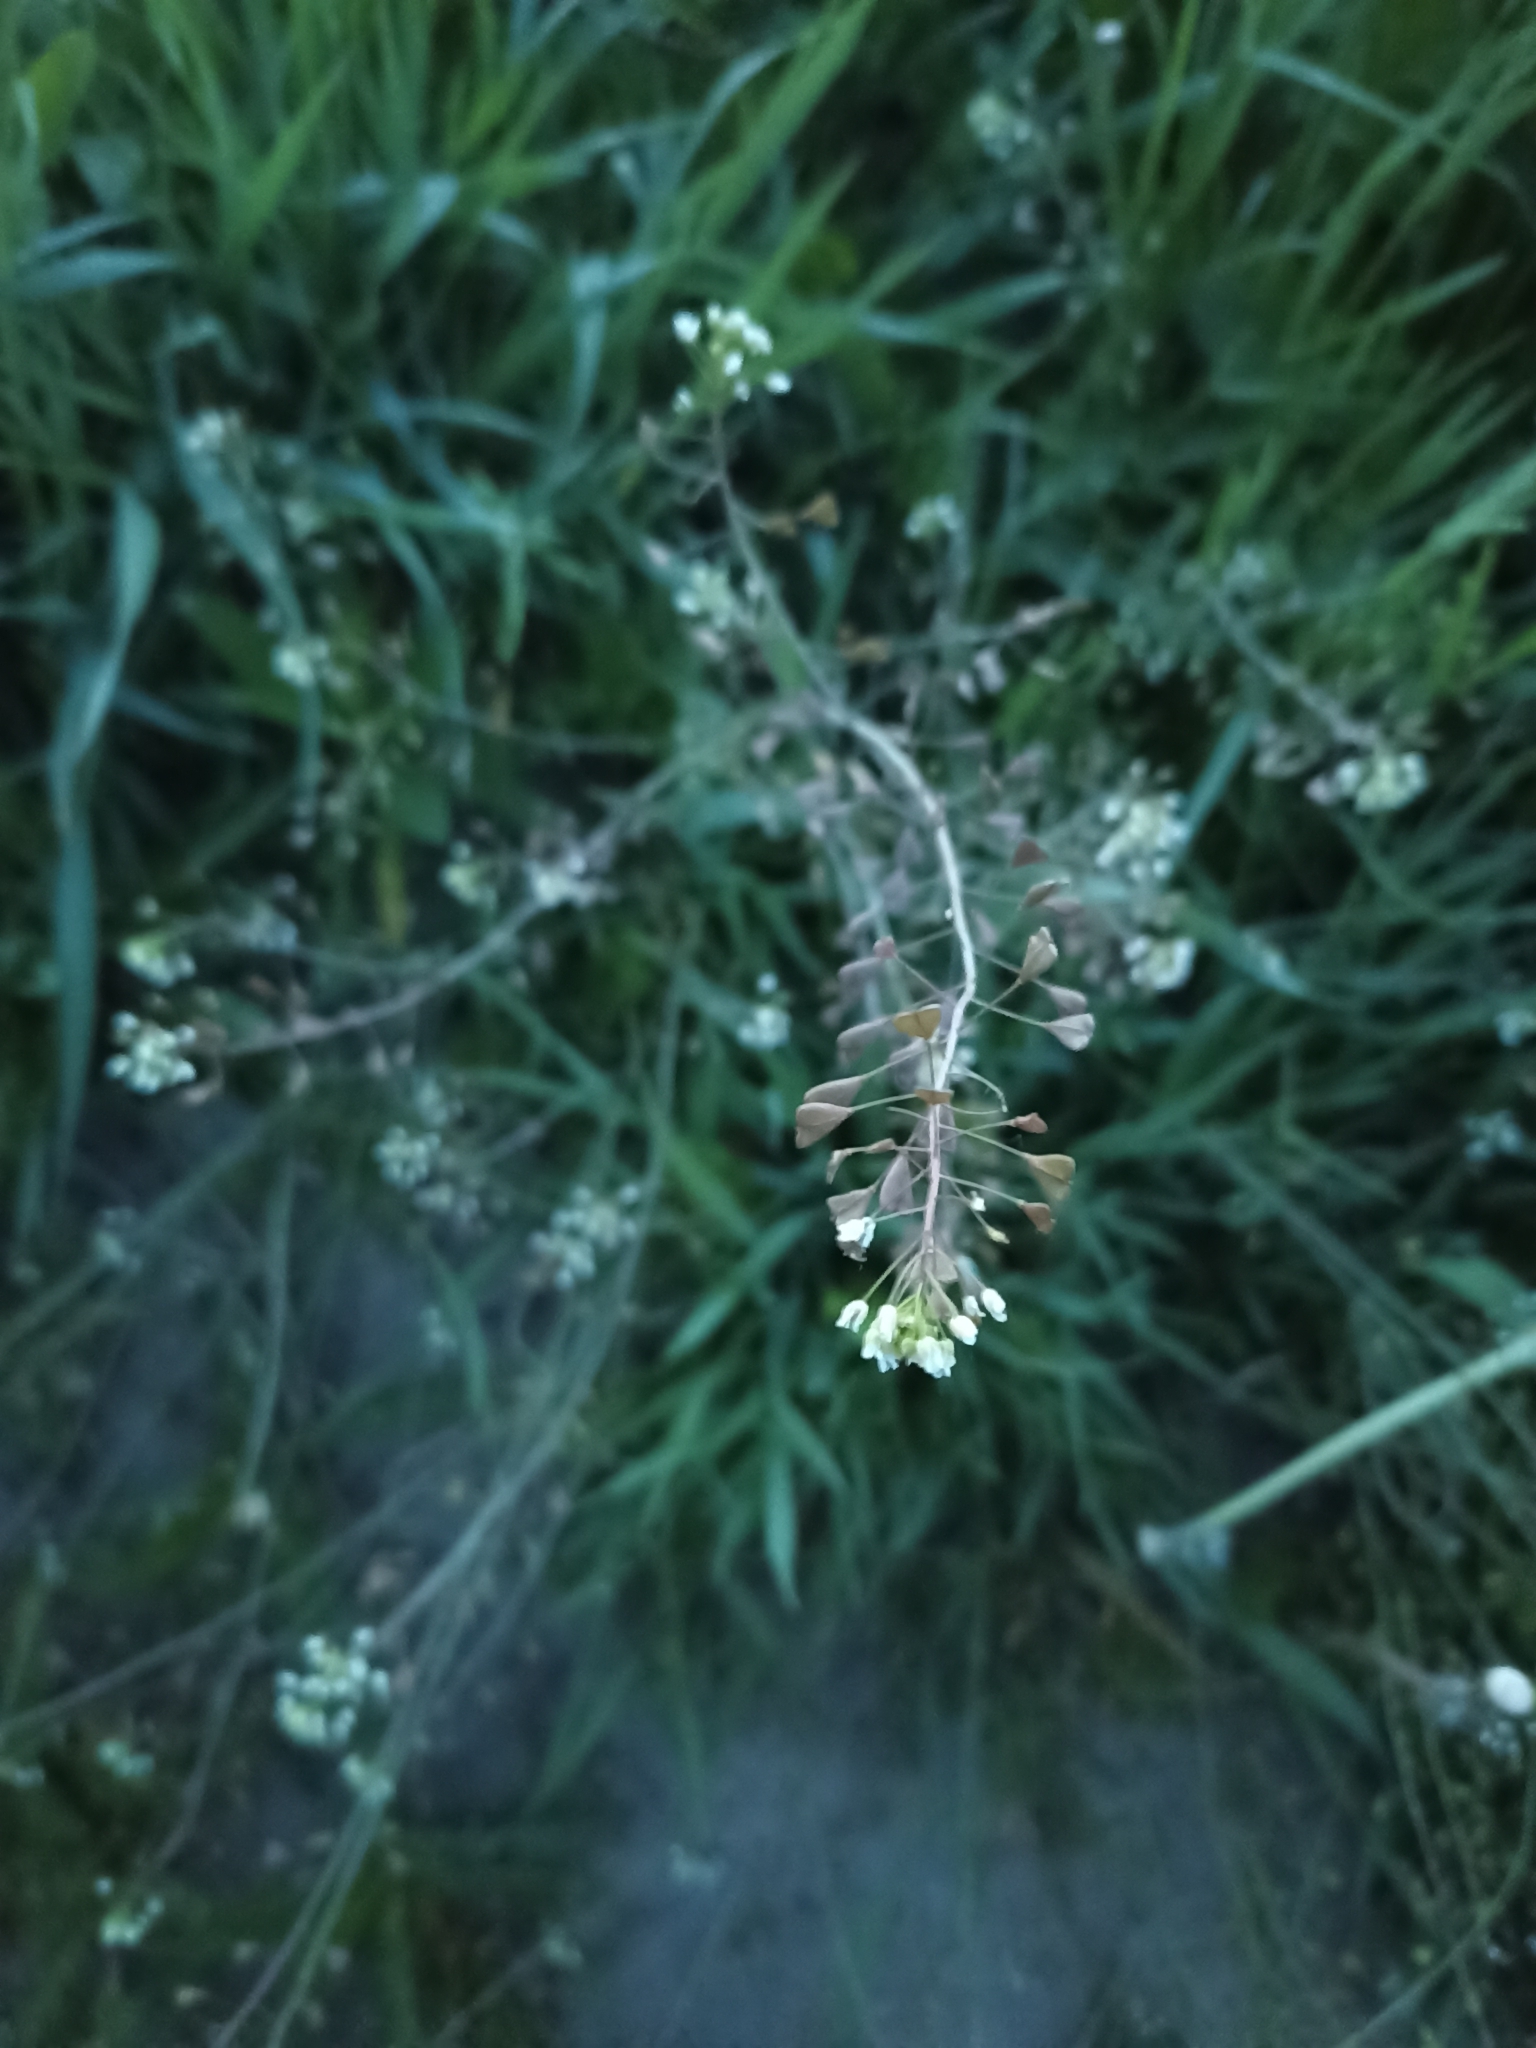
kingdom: Plantae
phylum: Tracheophyta
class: Magnoliopsida
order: Brassicales
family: Brassicaceae
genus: Capsella
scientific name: Capsella bursa-pastoris
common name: Shepherd's purse
